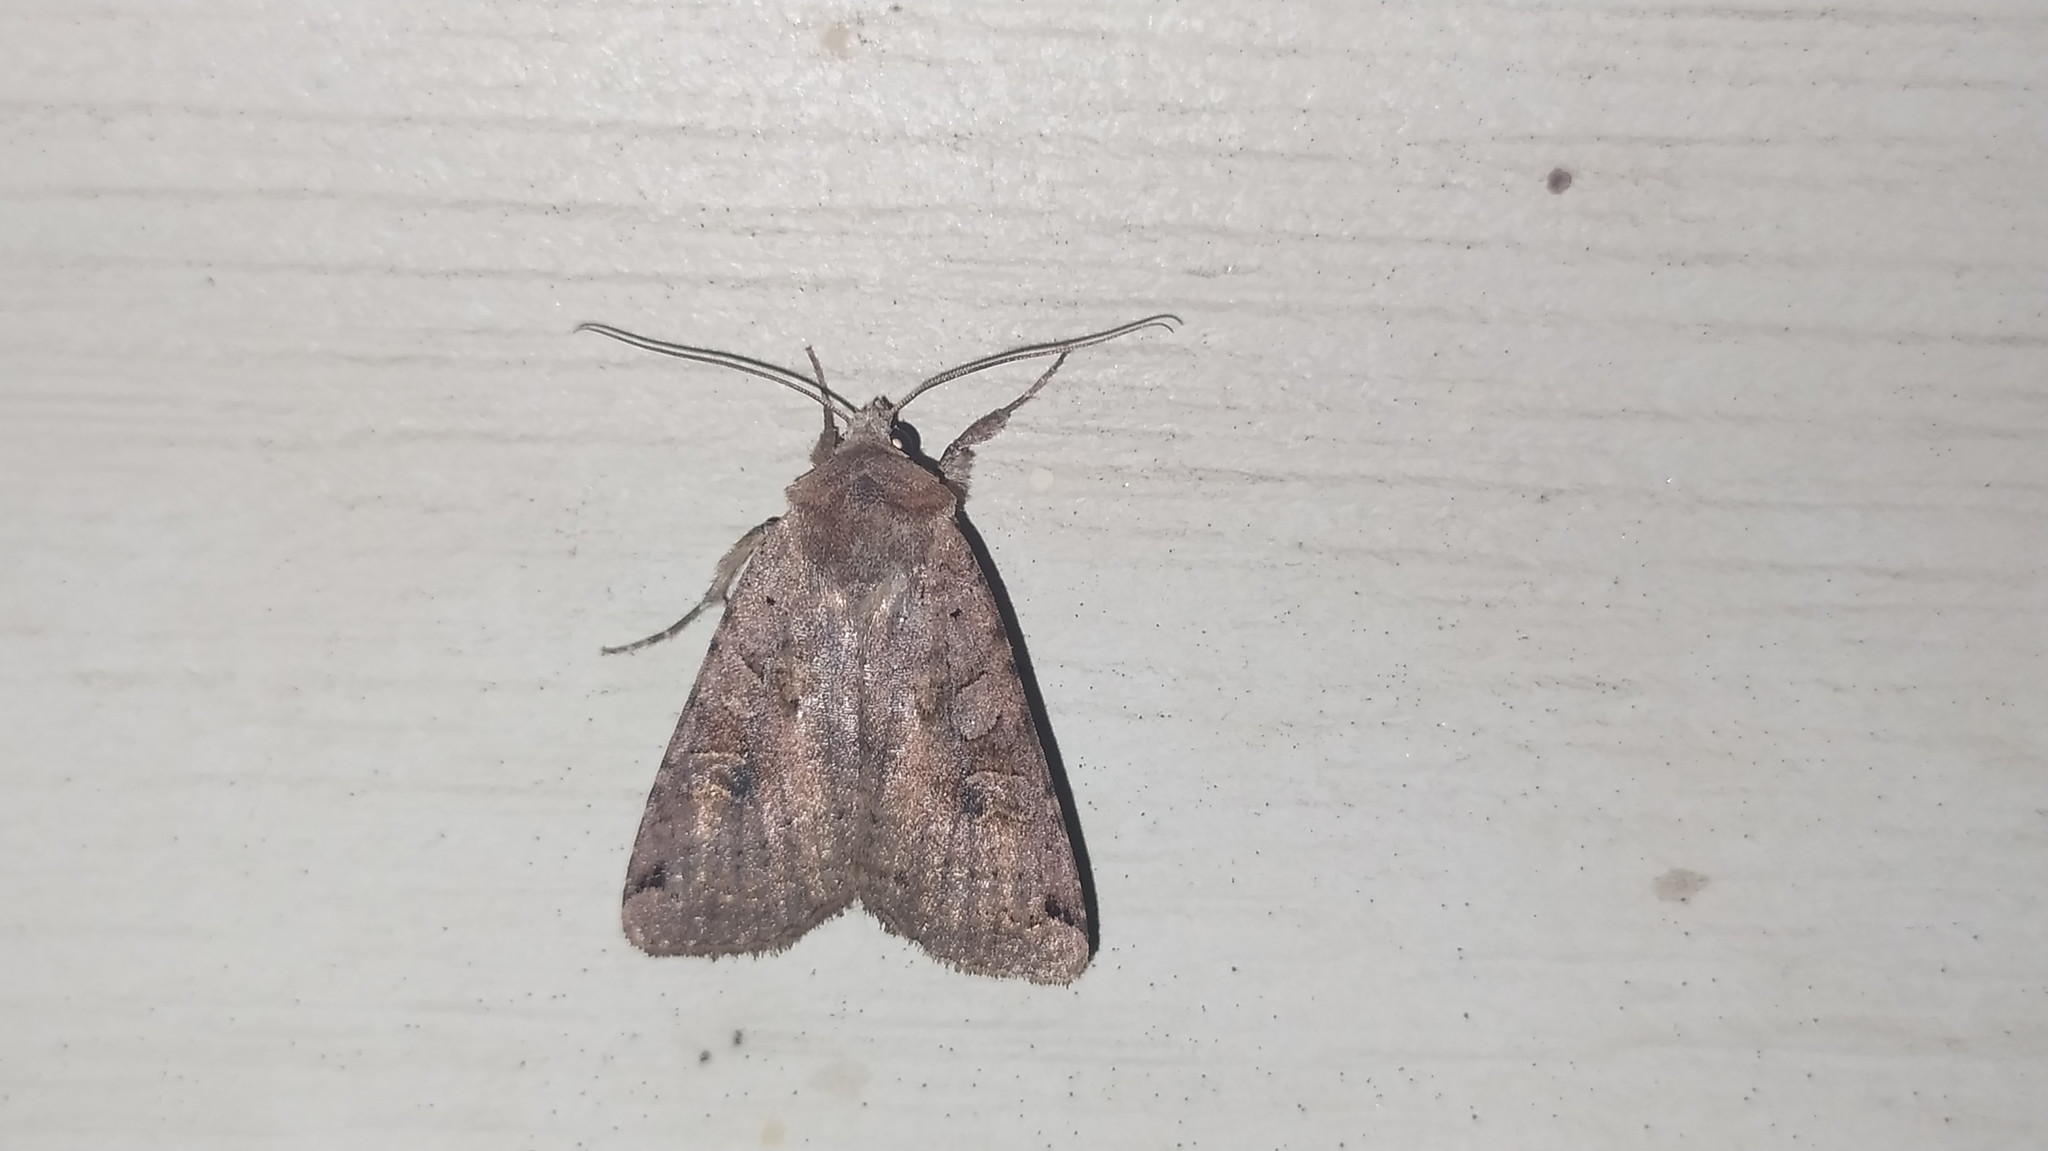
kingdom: Animalia
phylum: Arthropoda
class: Insecta
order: Lepidoptera
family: Noctuidae
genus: Xestia
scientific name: Xestia baja
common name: Dotted clay
